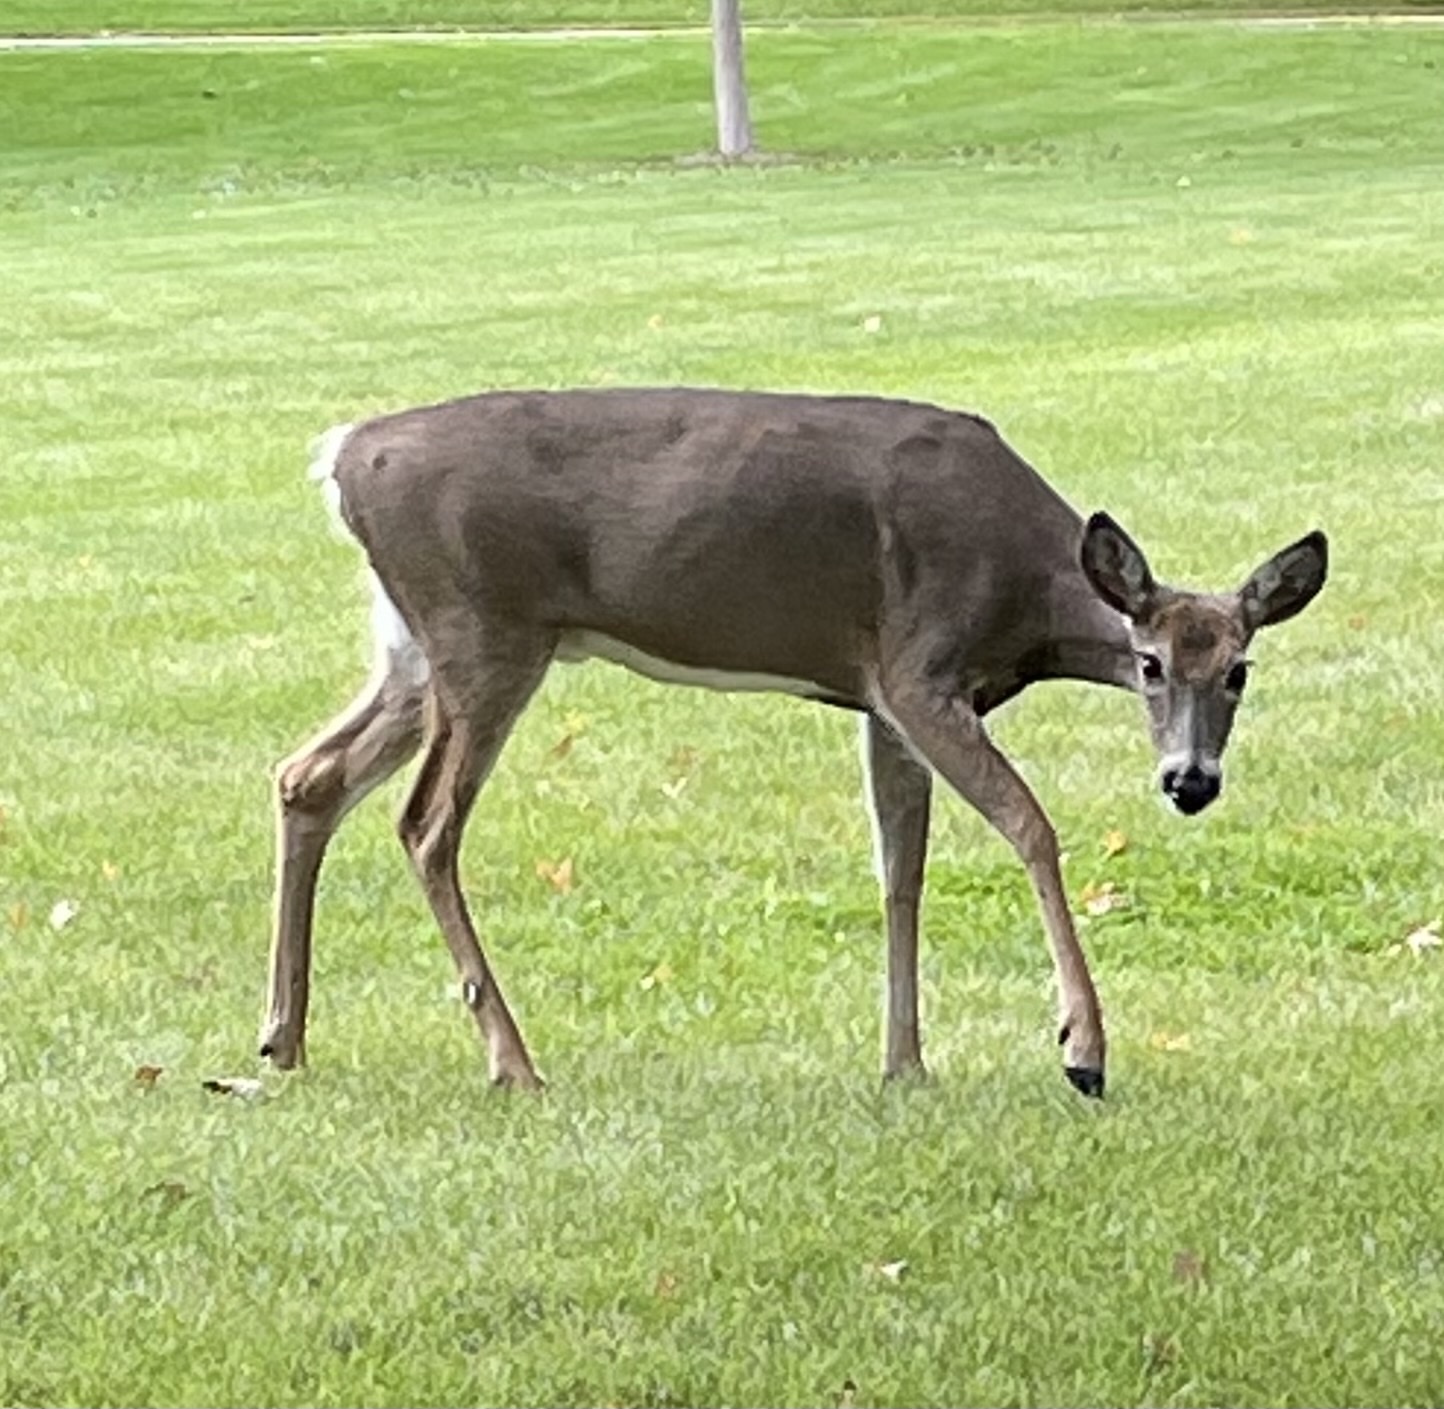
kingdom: Animalia
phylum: Chordata
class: Mammalia
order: Artiodactyla
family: Cervidae
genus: Odocoileus
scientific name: Odocoileus virginianus
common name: White-tailed deer
